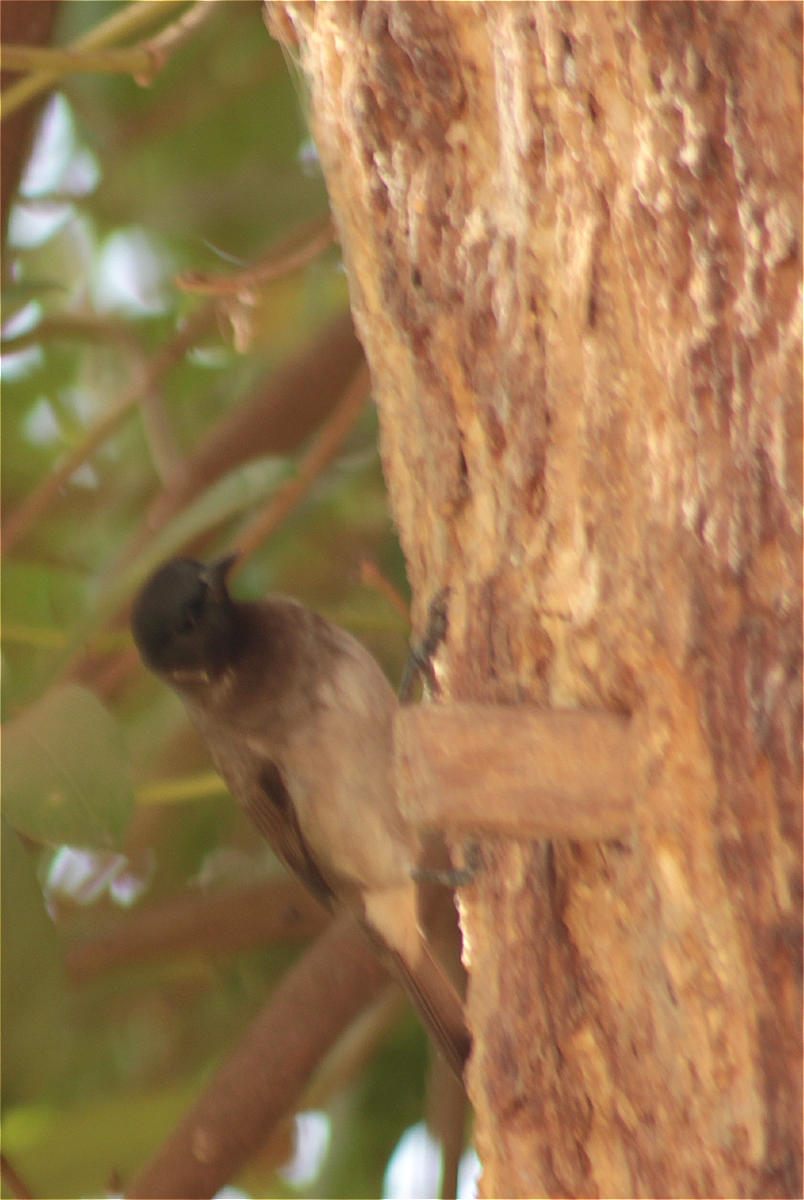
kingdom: Animalia
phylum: Chordata
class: Aves
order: Passeriformes
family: Pycnonotidae
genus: Pycnonotus
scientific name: Pycnonotus barbatus
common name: Common bulbul
